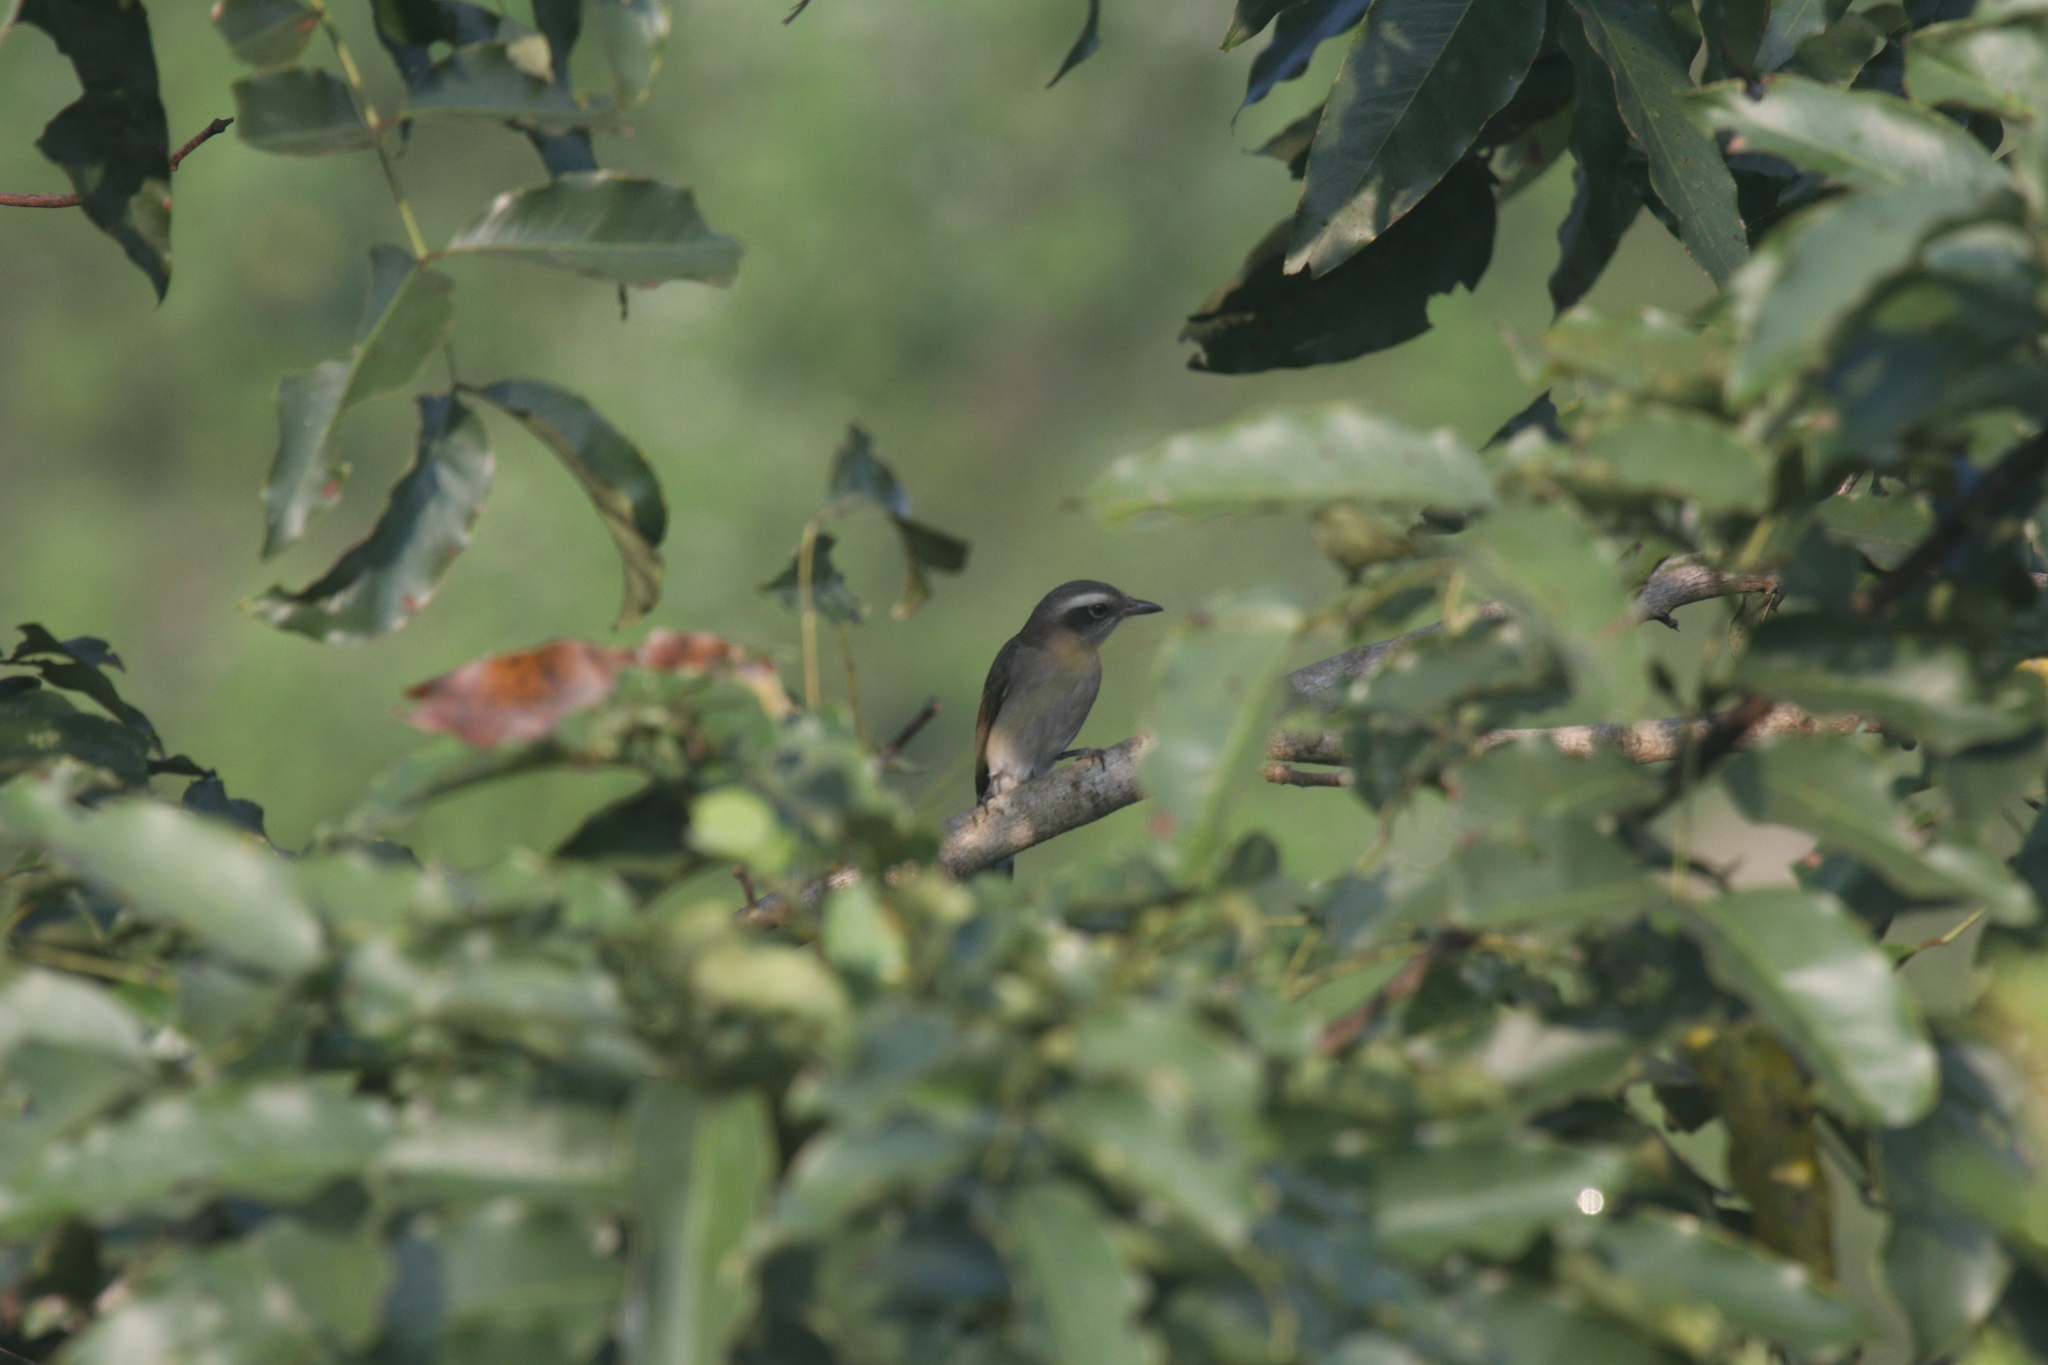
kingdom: Animalia
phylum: Chordata
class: Aves
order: Passeriformes
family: Tephrodornithidae
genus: Tephrodornis
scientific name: Tephrodornis pondicerianus
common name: Common woodshrike
